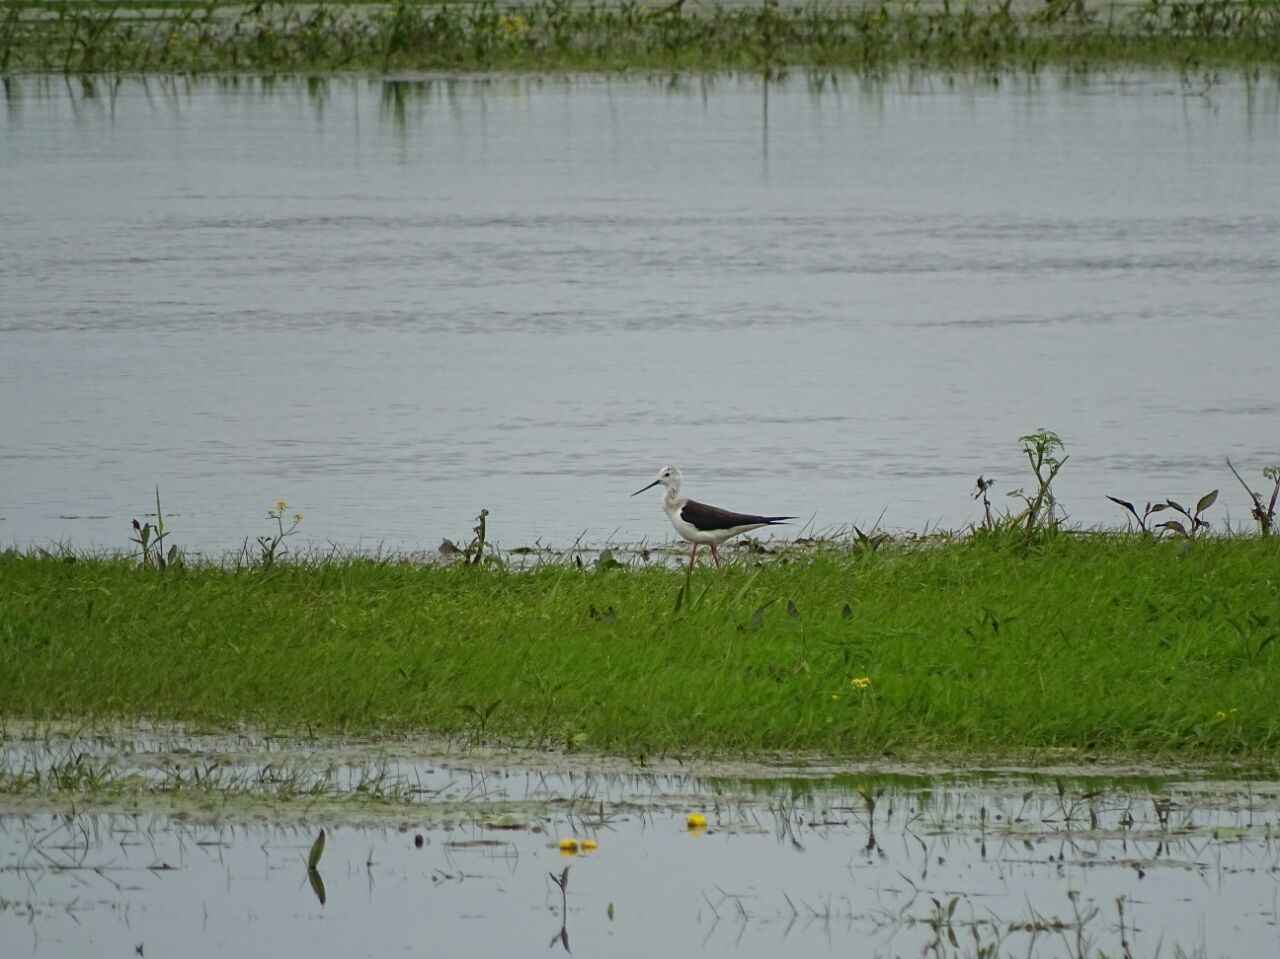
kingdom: Animalia
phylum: Chordata
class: Aves
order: Charadriiformes
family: Recurvirostridae
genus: Himantopus
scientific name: Himantopus himantopus
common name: Black-winged stilt
